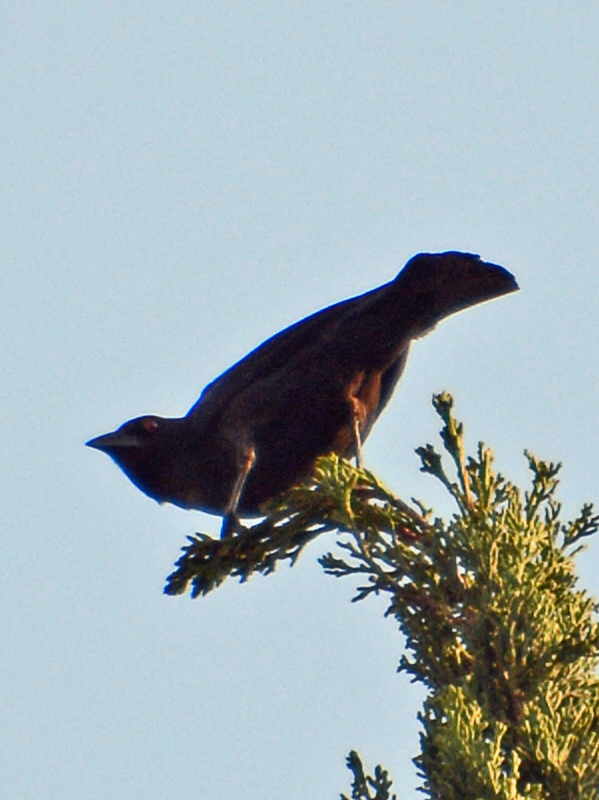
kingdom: Animalia
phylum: Chordata
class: Aves
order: Passeriformes
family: Icteridae
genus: Molothrus
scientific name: Molothrus aeneus
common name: Bronzed cowbird
